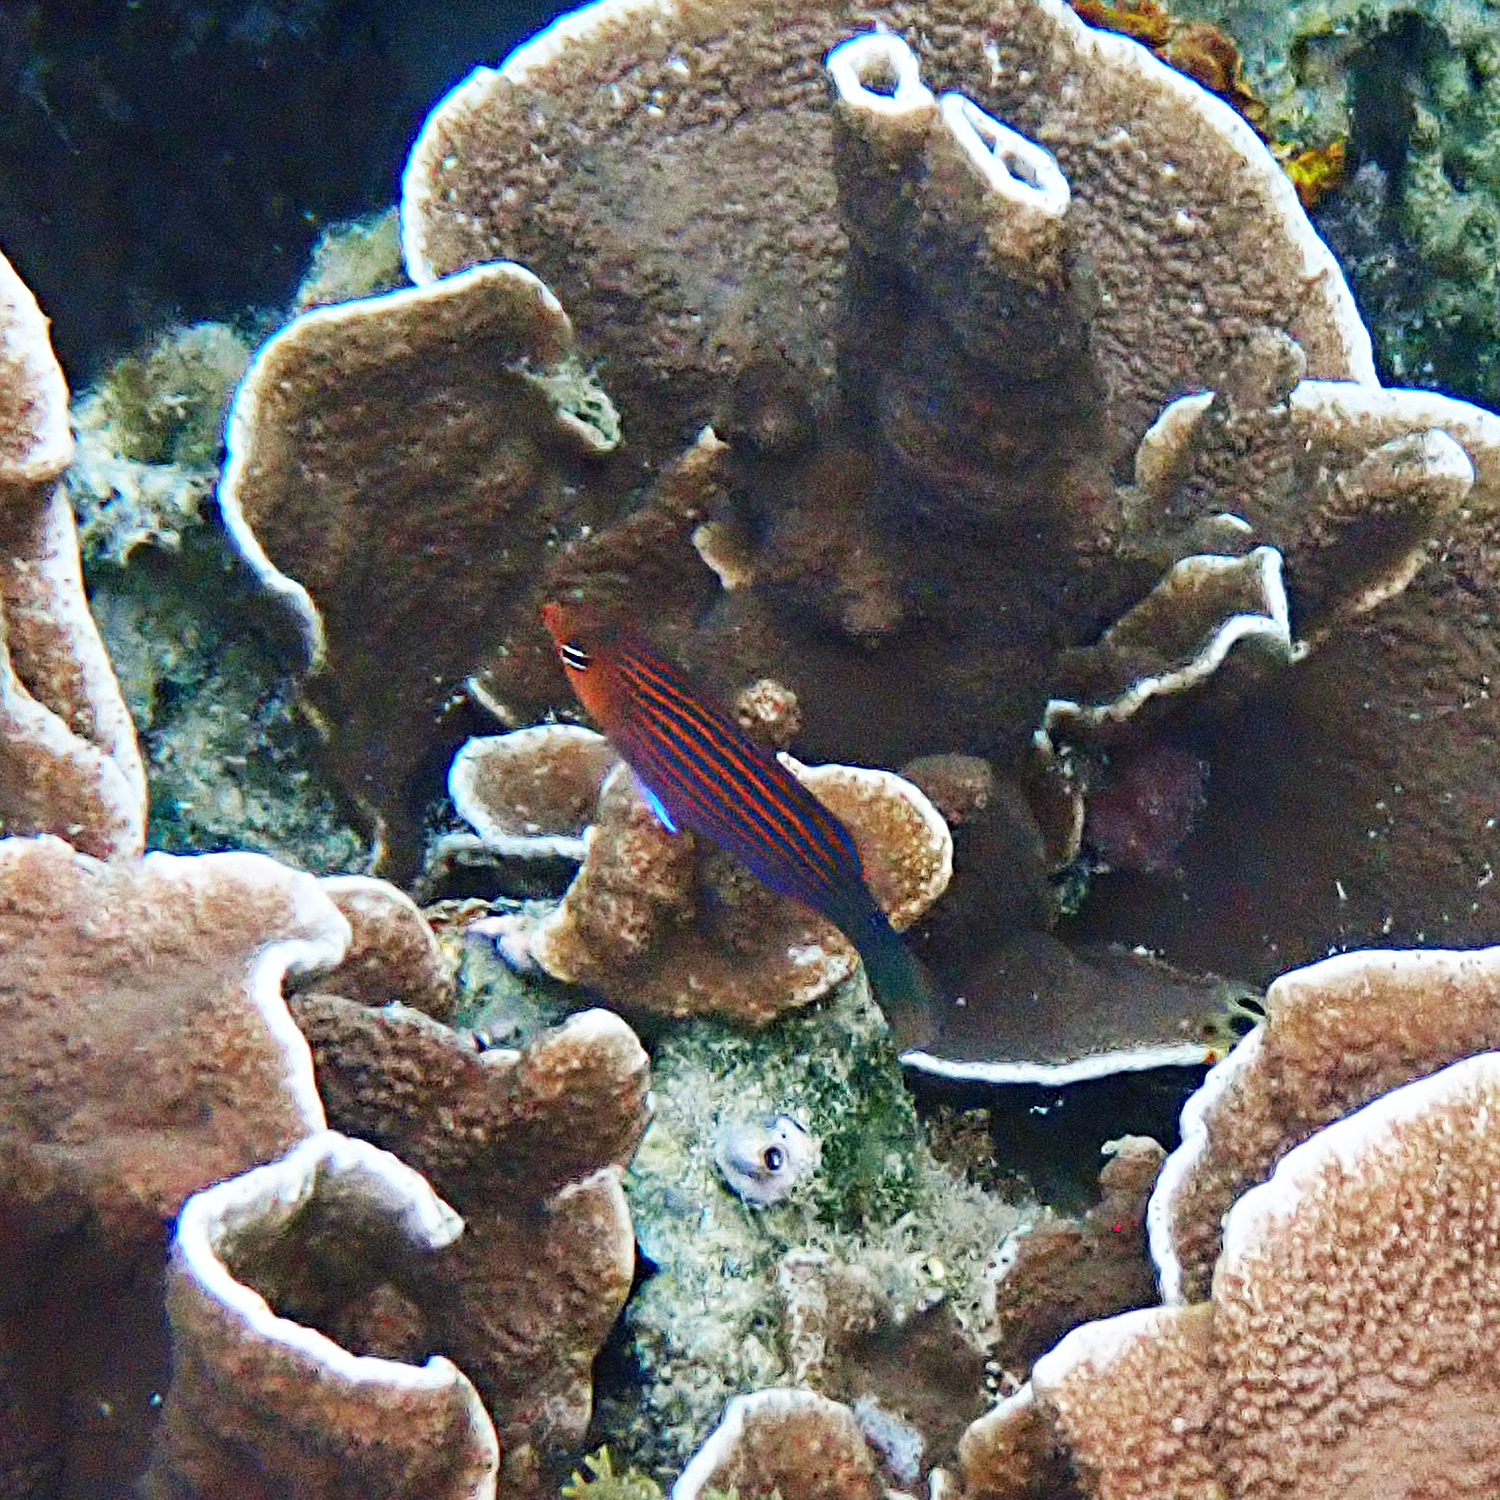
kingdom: Animalia
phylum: Chordata
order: Perciformes
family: Labridae
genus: Pseudocheilinus
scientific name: Pseudocheilinus hexataenia
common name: Sixline wrasse
